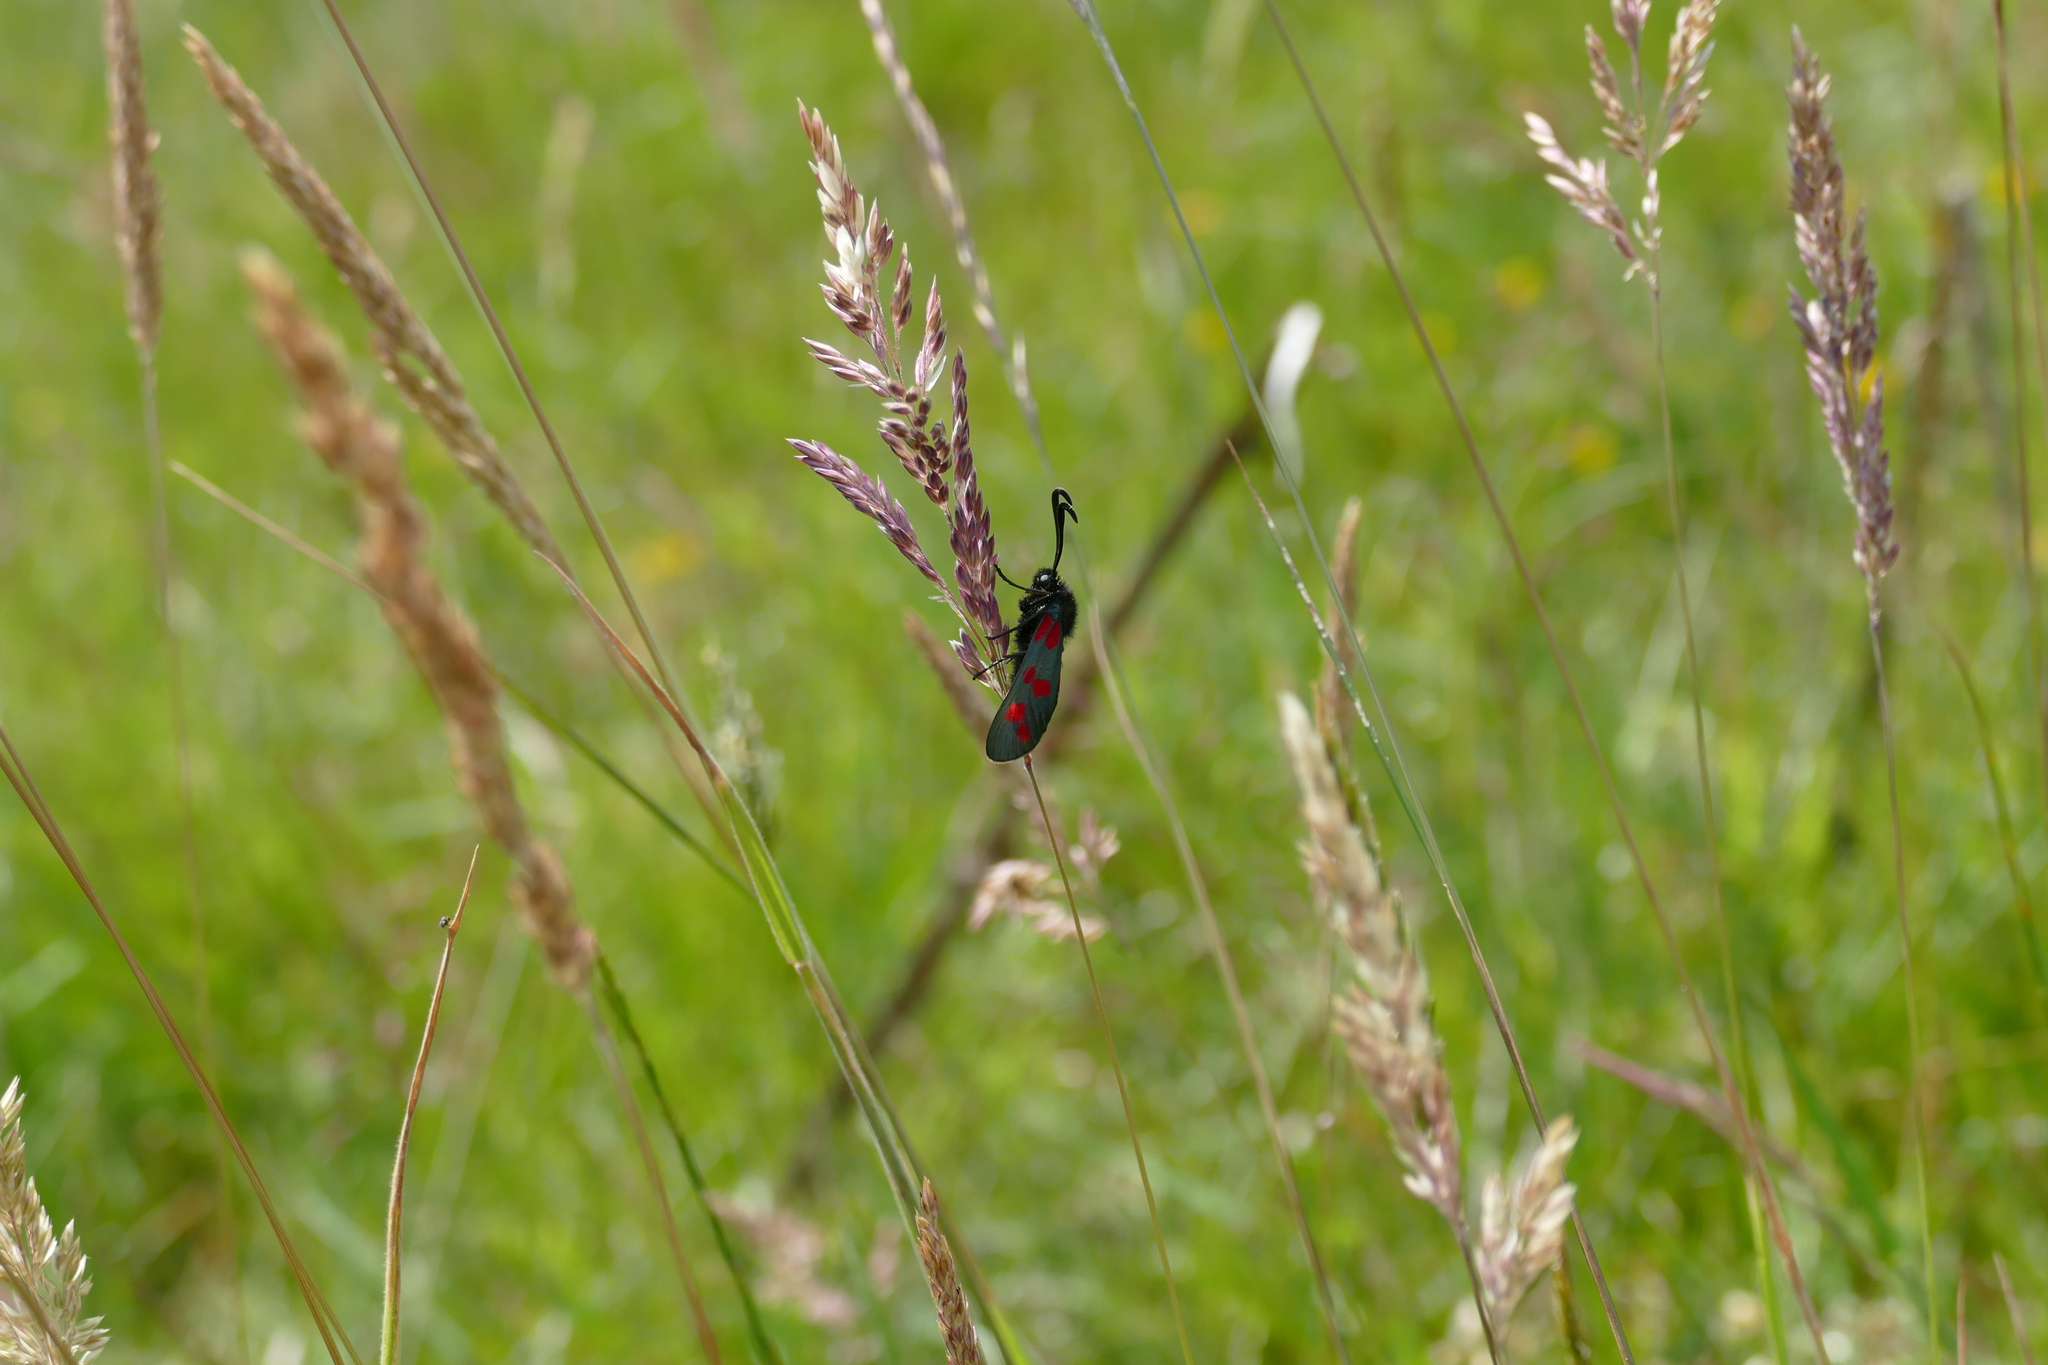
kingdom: Animalia
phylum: Arthropoda
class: Insecta
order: Lepidoptera
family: Zygaenidae
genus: Zygaena
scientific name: Zygaena filipendulae
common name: Six-spot burnet
